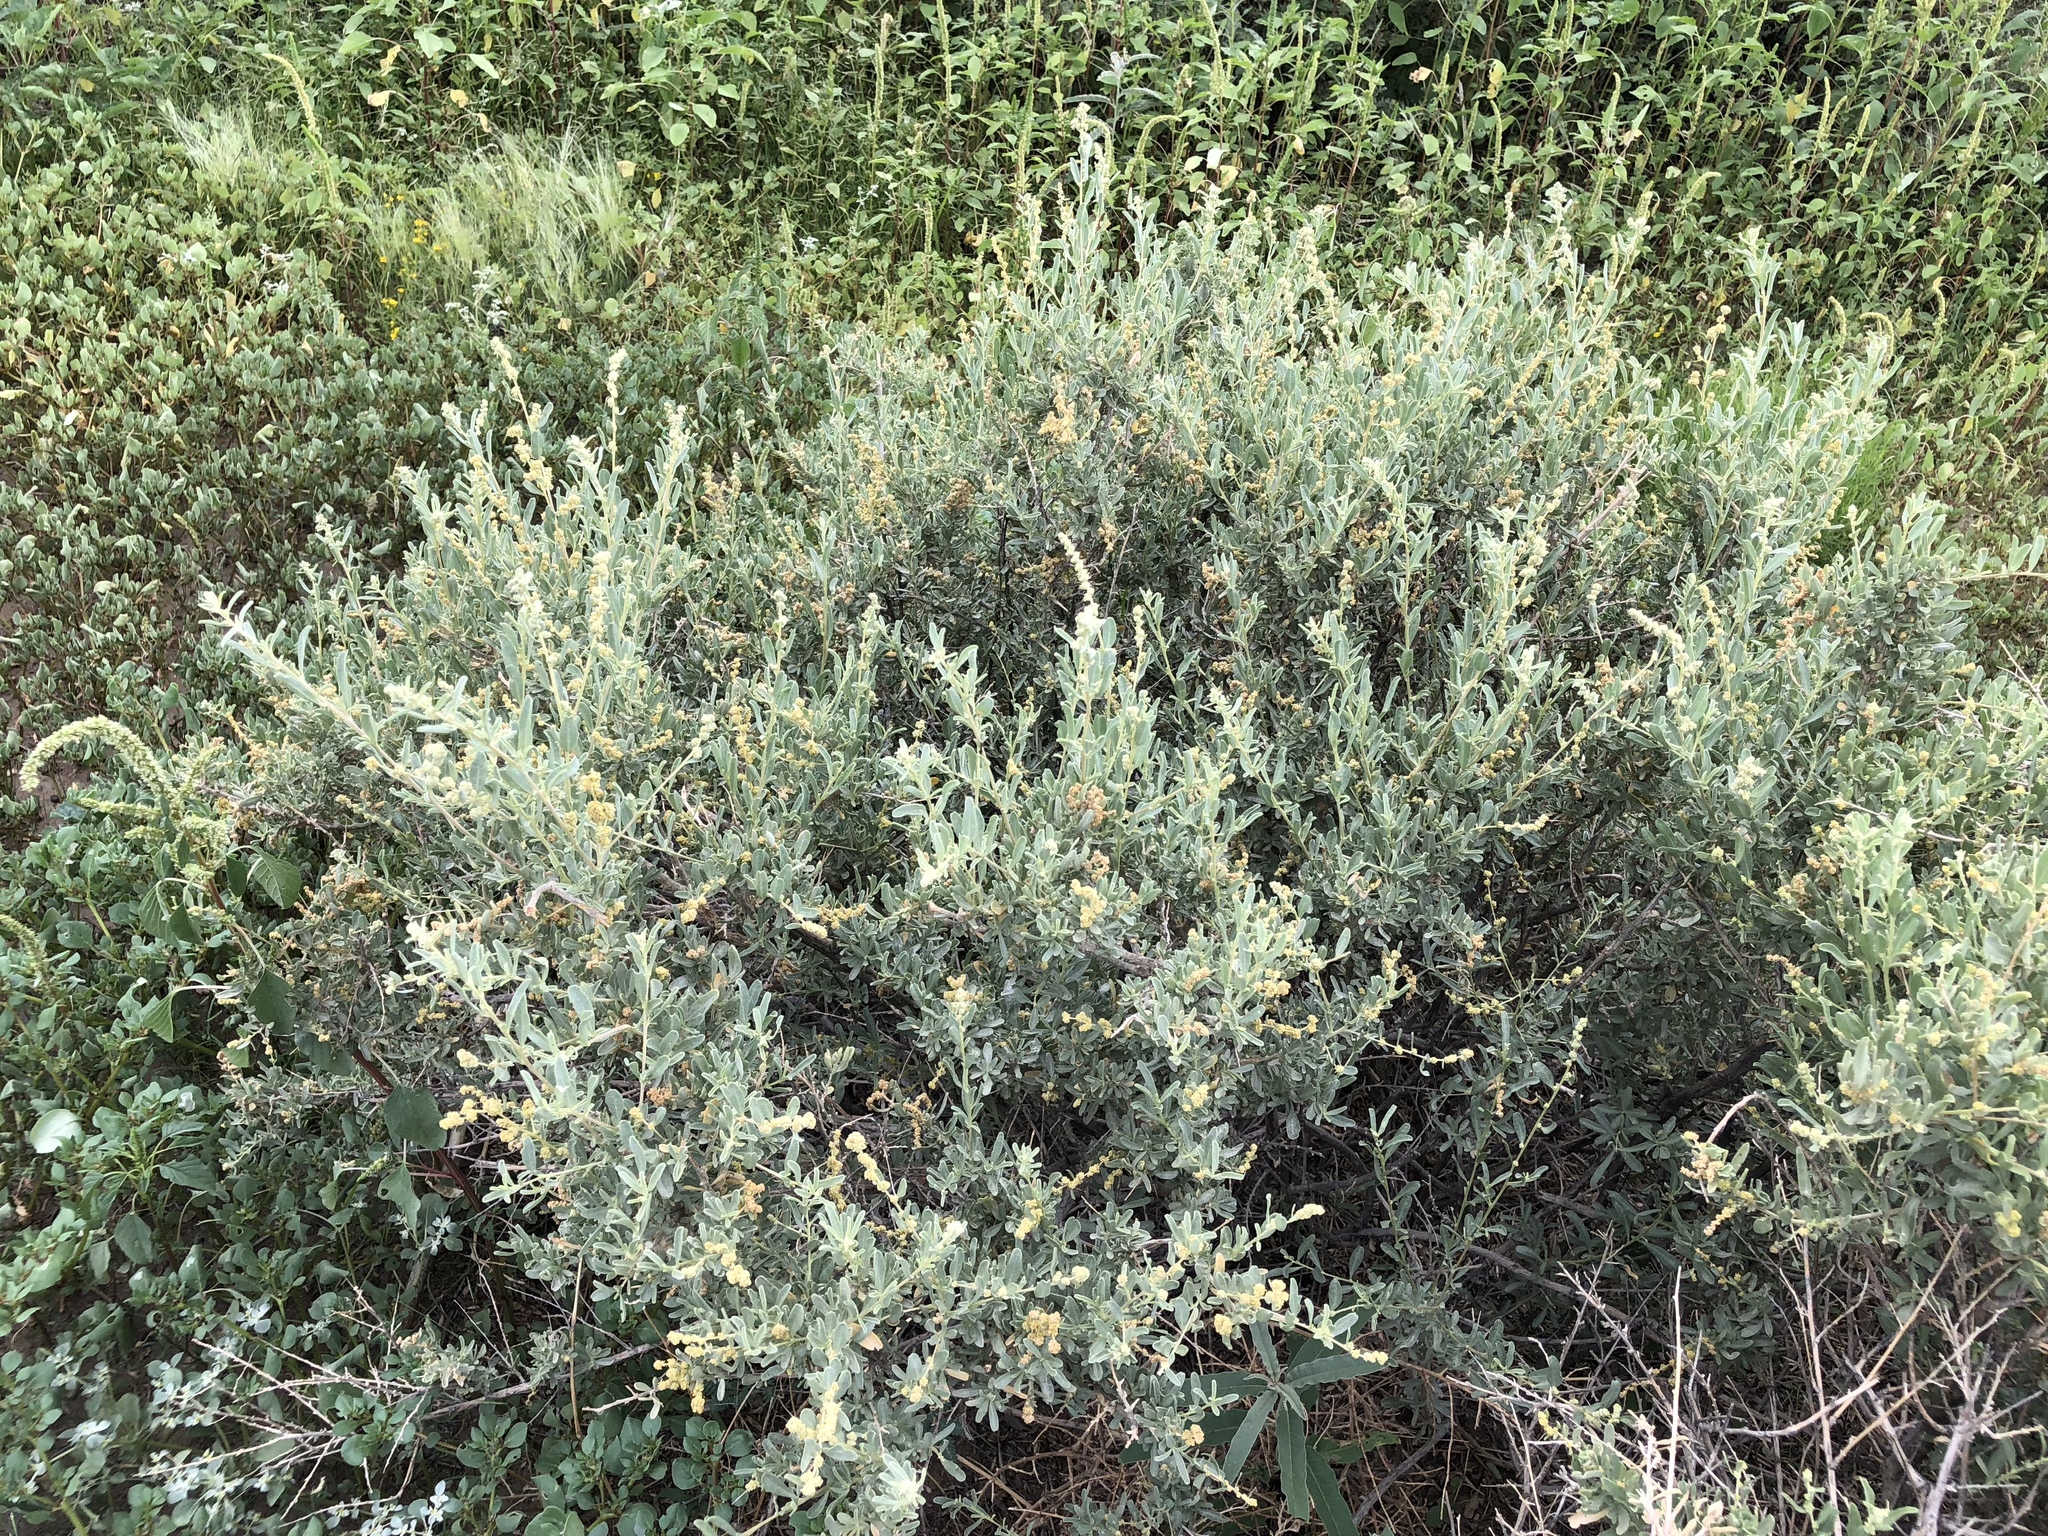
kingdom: Plantae
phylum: Tracheophyta
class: Magnoliopsida
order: Caryophyllales
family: Amaranthaceae
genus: Atriplex
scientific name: Atriplex canescens
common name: Four-wing saltbush
